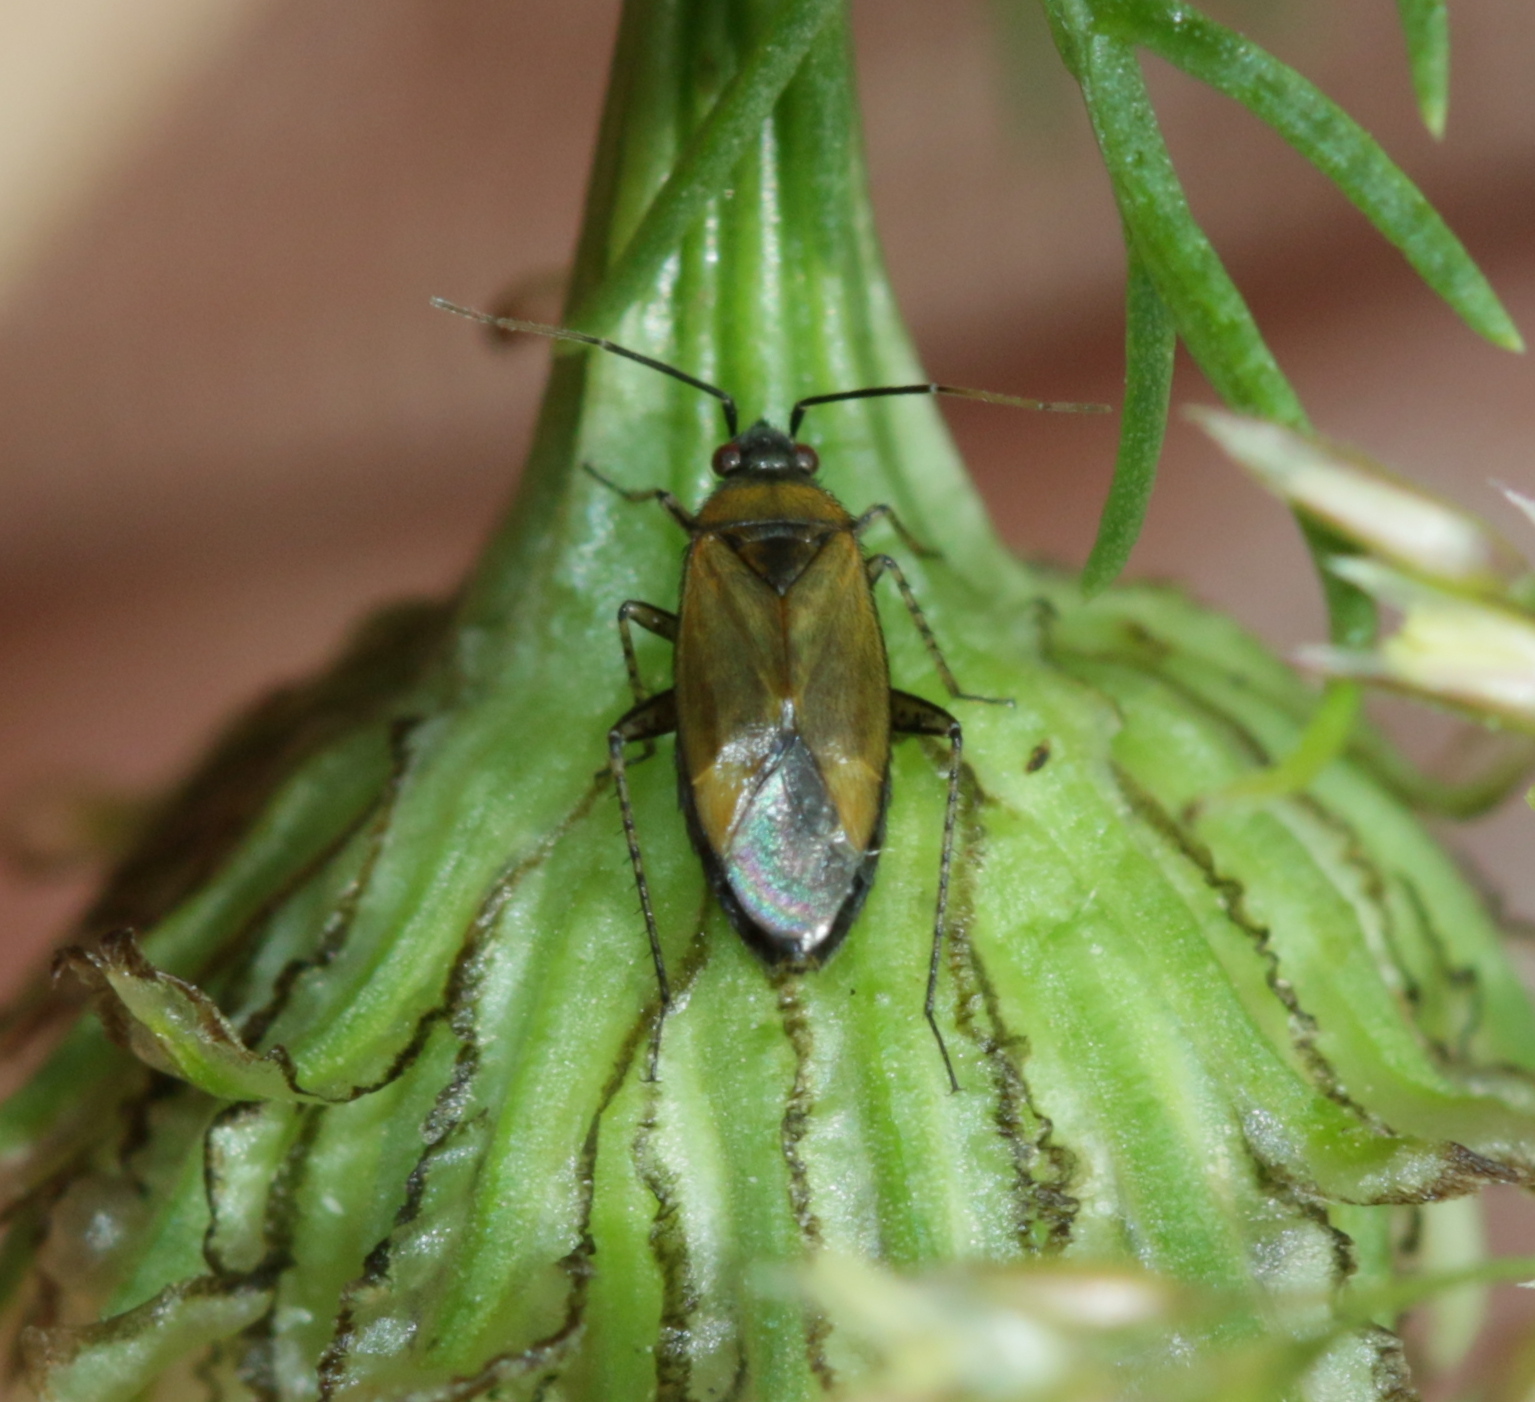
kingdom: Animalia
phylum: Arthropoda
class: Insecta
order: Hemiptera
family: Miridae
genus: Plagiognathus
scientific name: Plagiognathus arbustorum
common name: Plant bug
